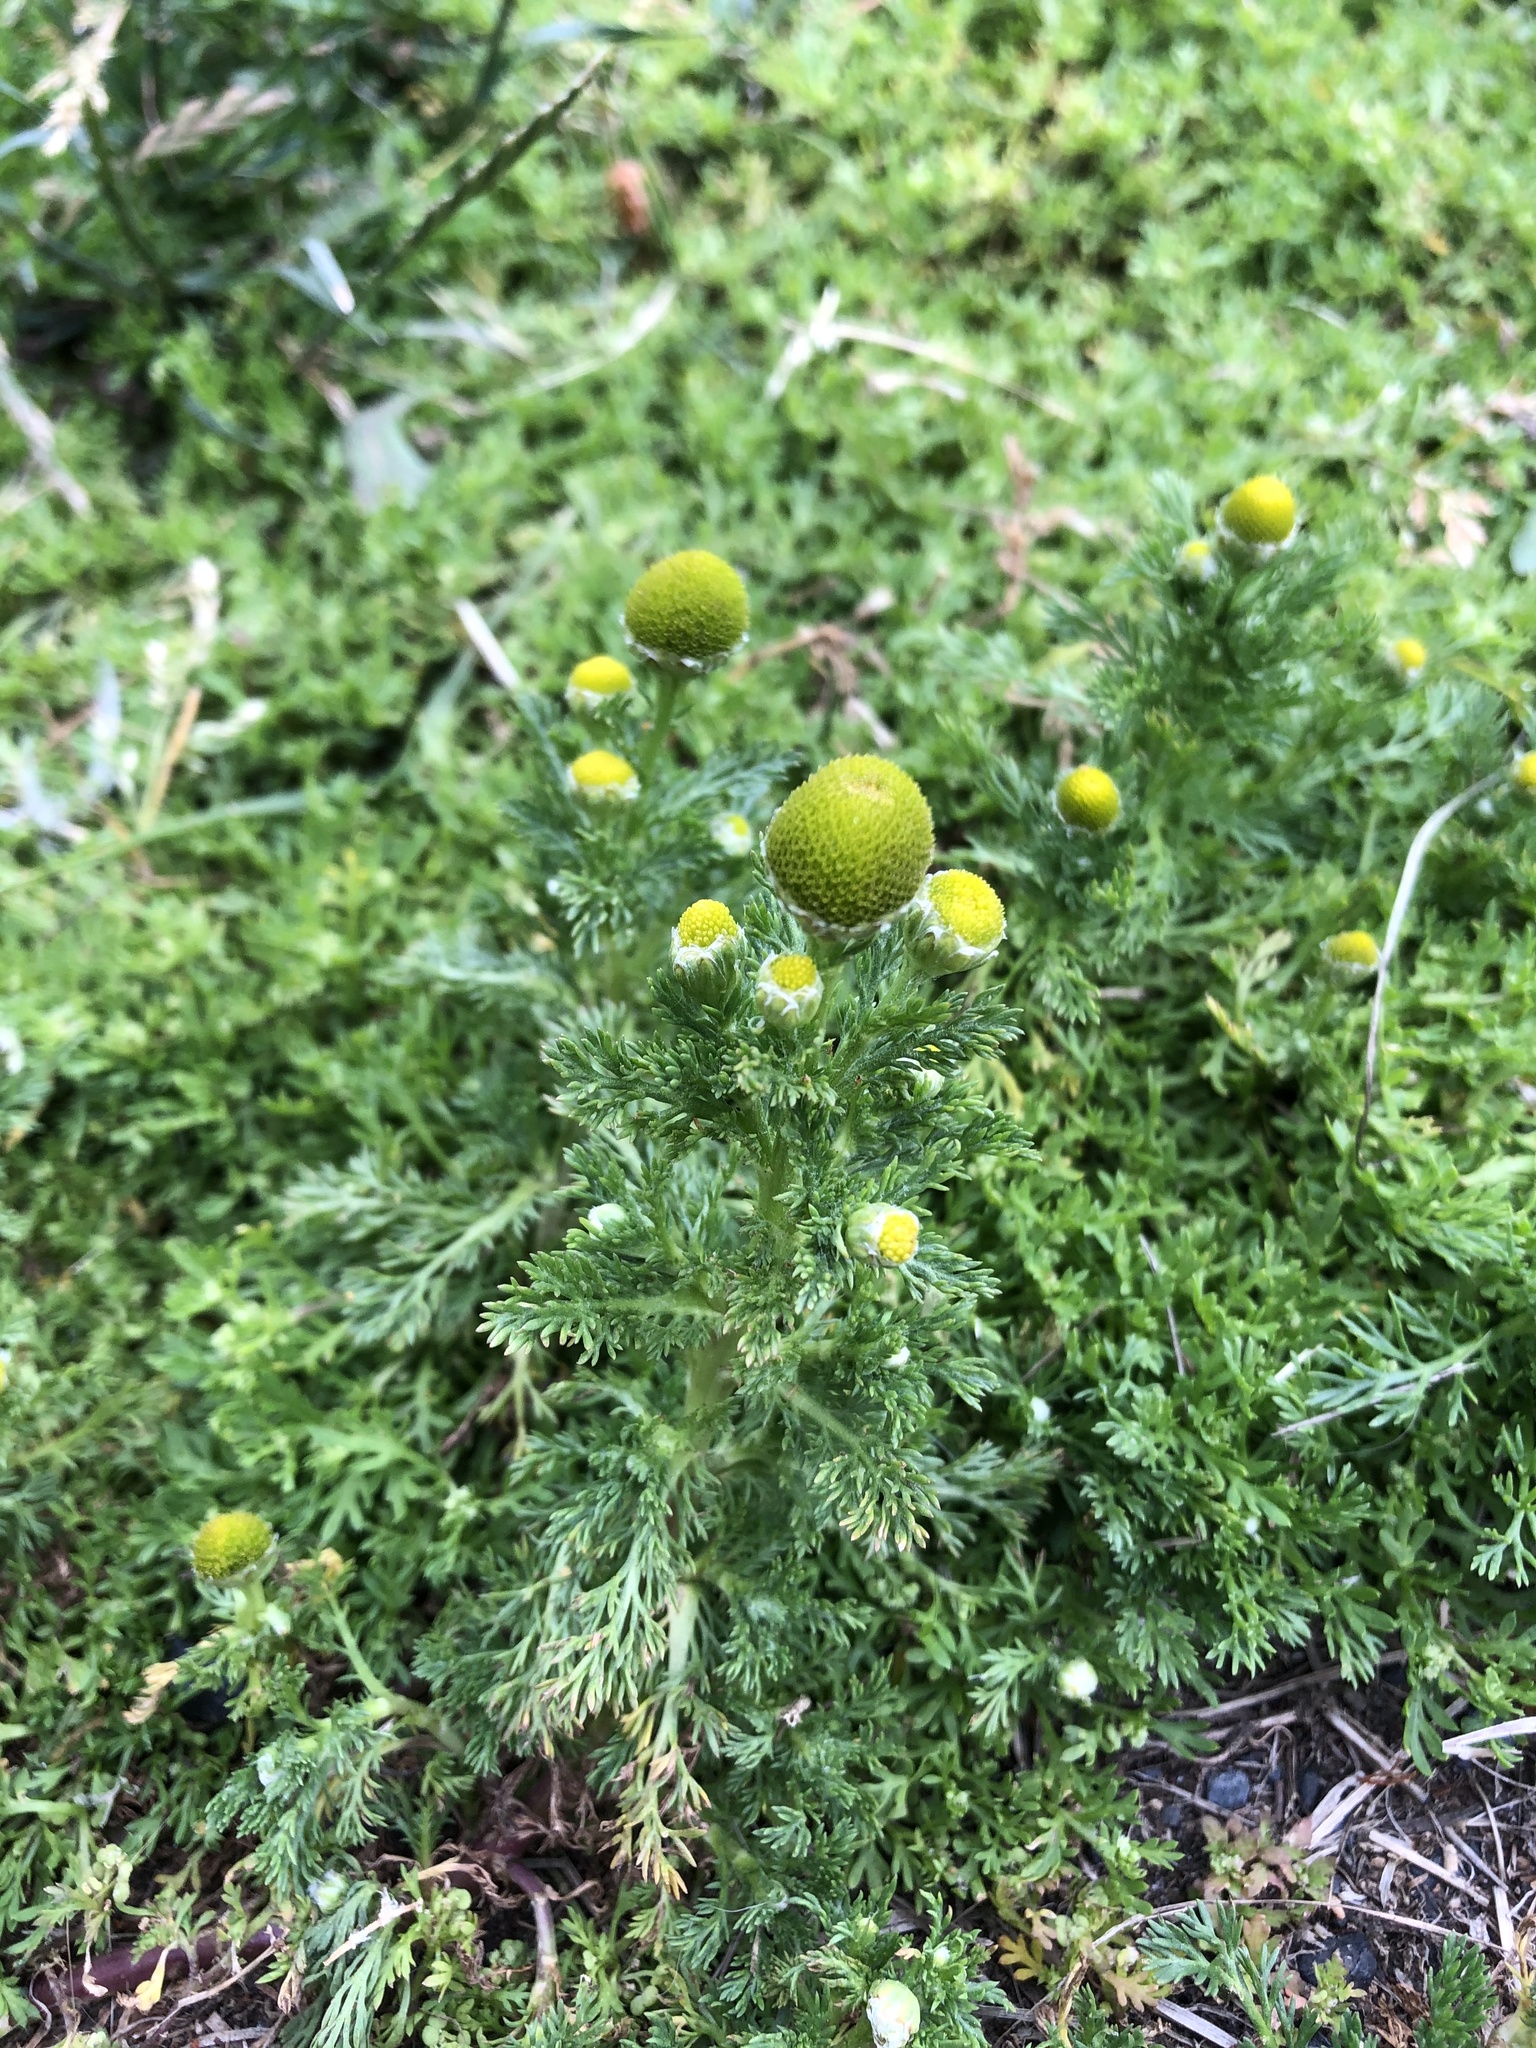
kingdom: Plantae
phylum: Tracheophyta
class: Magnoliopsida
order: Asterales
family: Asteraceae
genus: Matricaria
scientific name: Matricaria discoidea
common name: Disc mayweed
